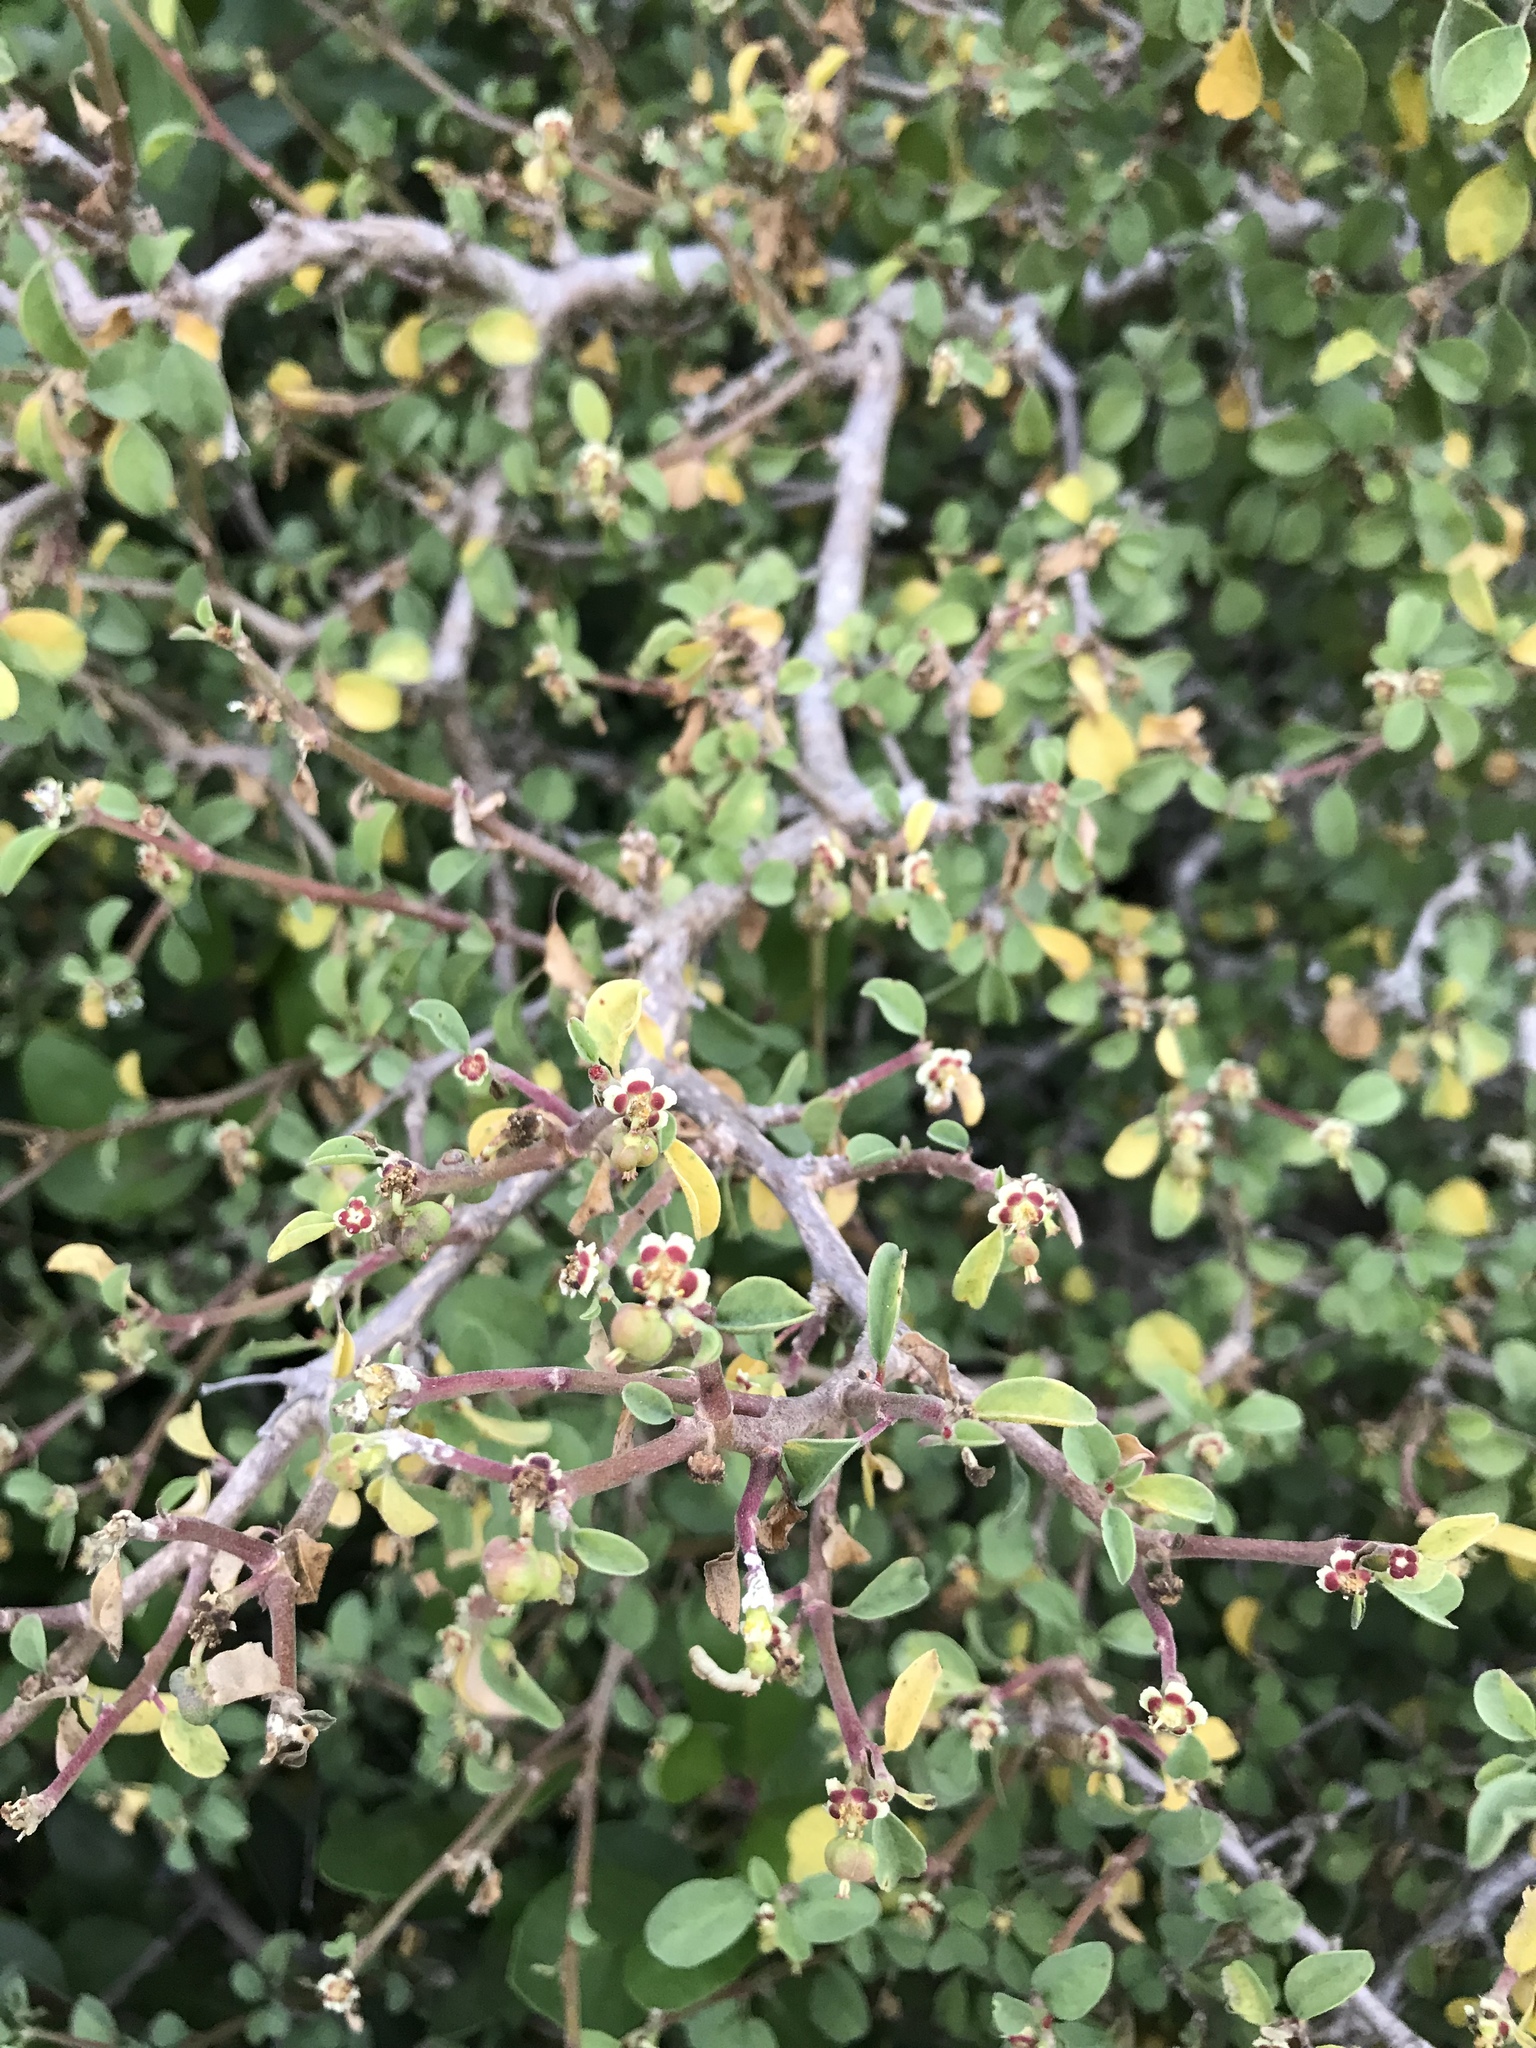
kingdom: Plantae
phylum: Tracheophyta
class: Magnoliopsida
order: Malpighiales
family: Euphorbiaceae
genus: Euphorbia
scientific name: Euphorbia misera
